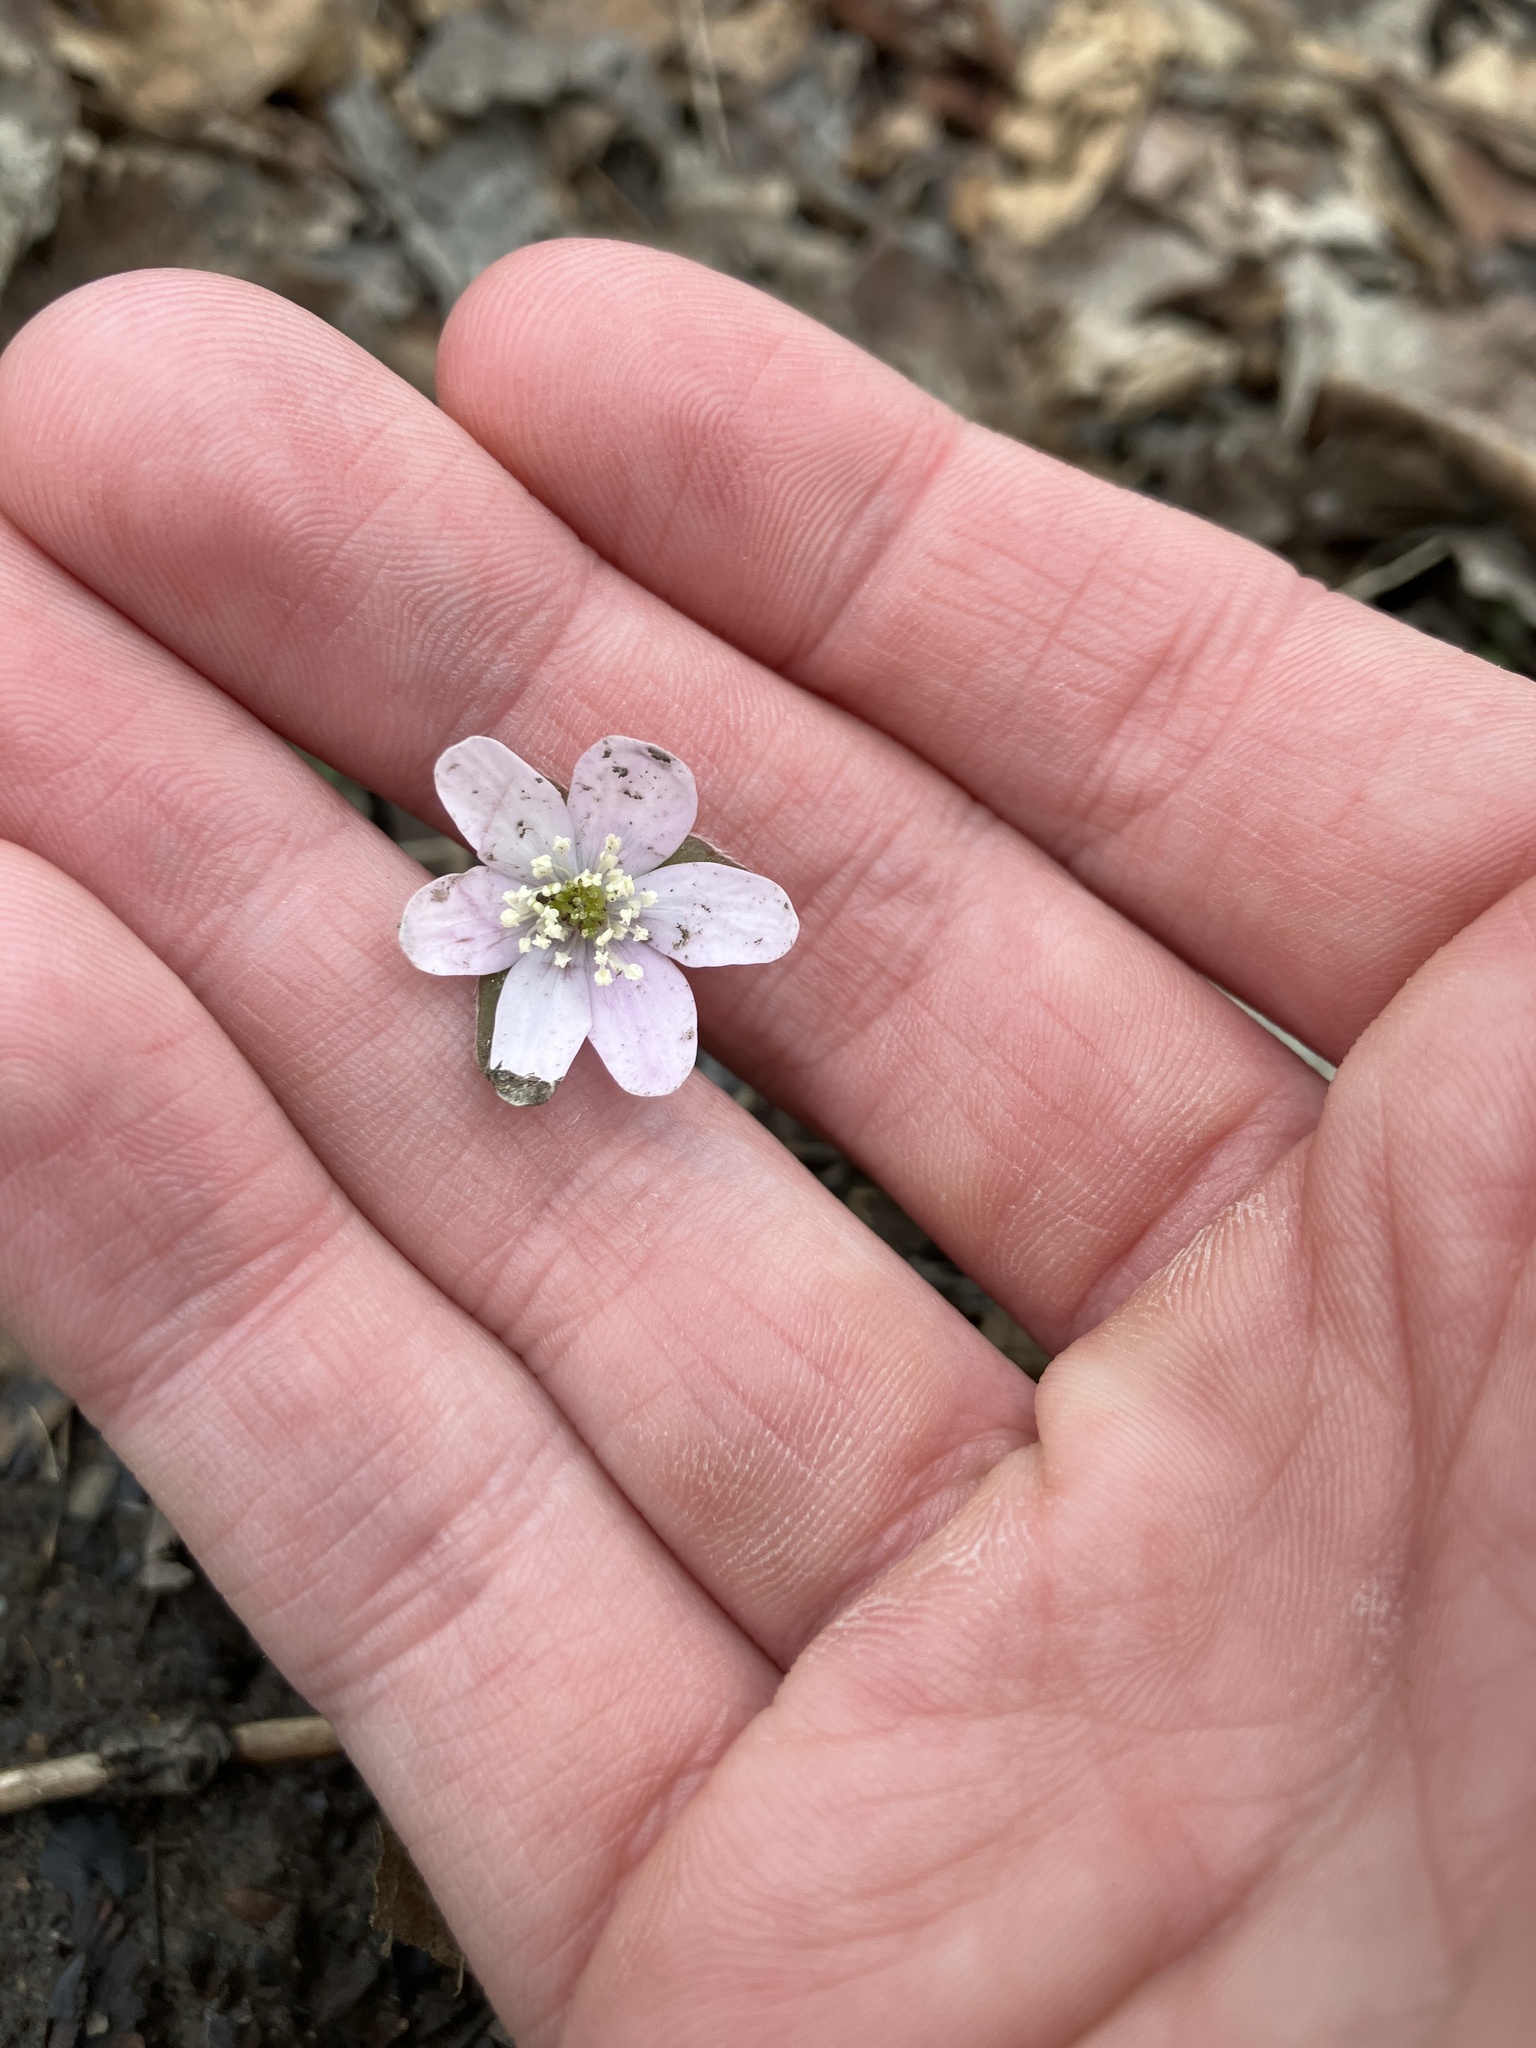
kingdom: Plantae
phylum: Tracheophyta
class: Magnoliopsida
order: Ranunculales
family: Ranunculaceae
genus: Hepatica
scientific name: Hepatica acutiloba
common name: Sharp-lobed hepatica
